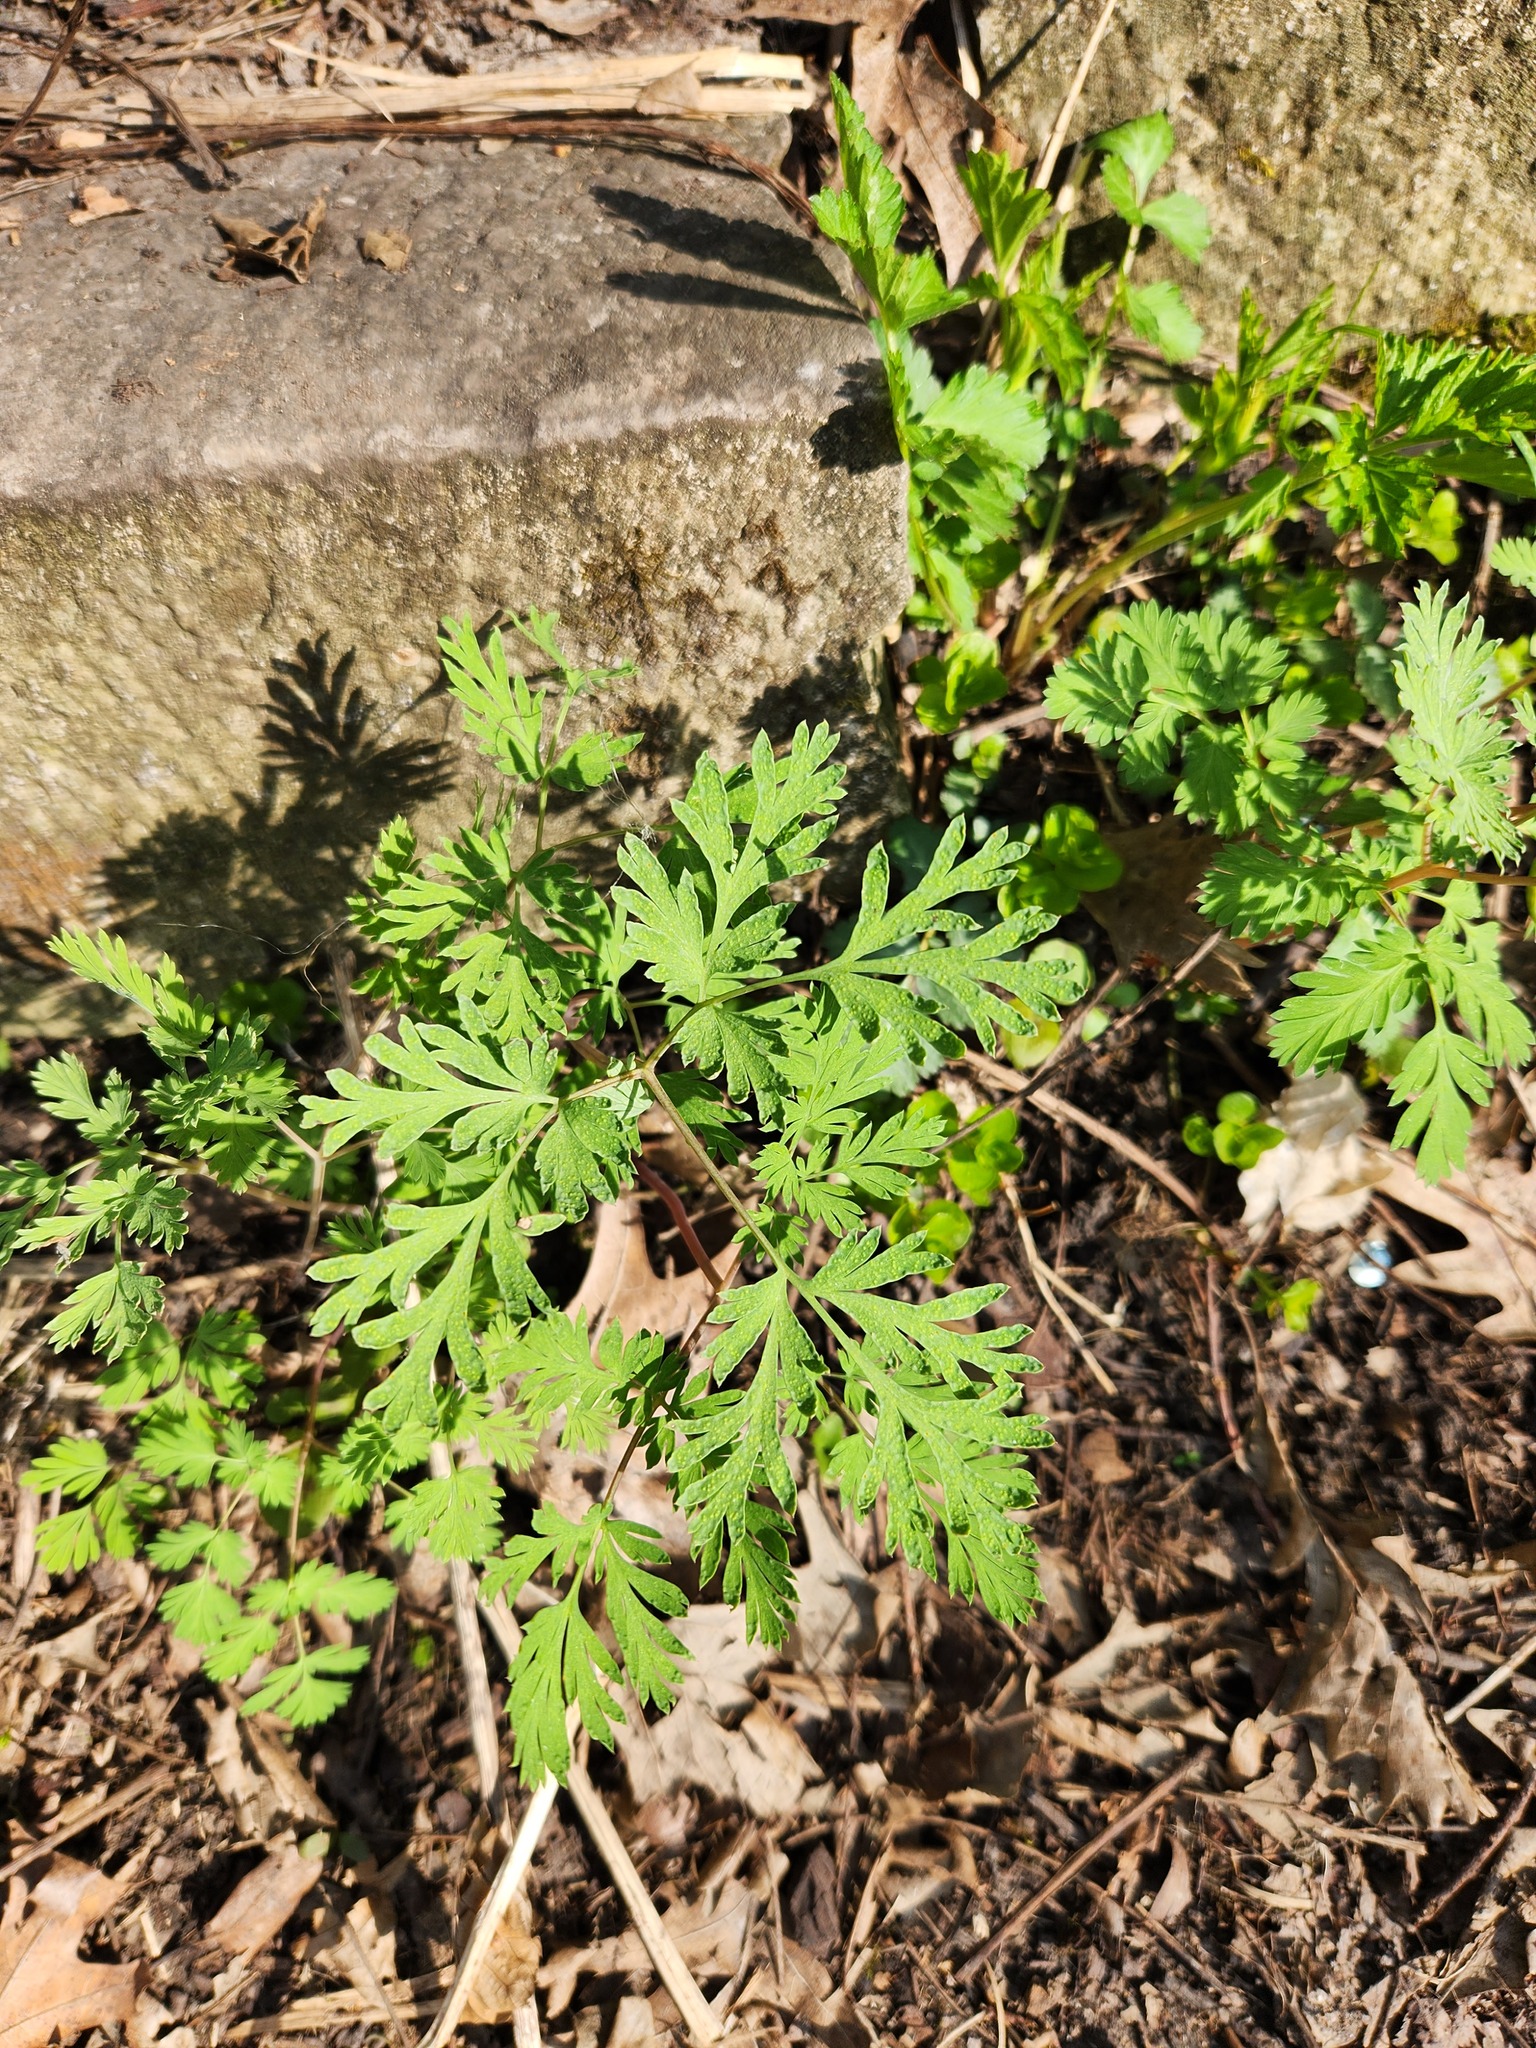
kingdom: Plantae
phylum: Tracheophyta
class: Magnoliopsida
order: Ranunculales
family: Papaveraceae
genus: Dicentra
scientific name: Dicentra cucullaria
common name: Dutchman's breeches
